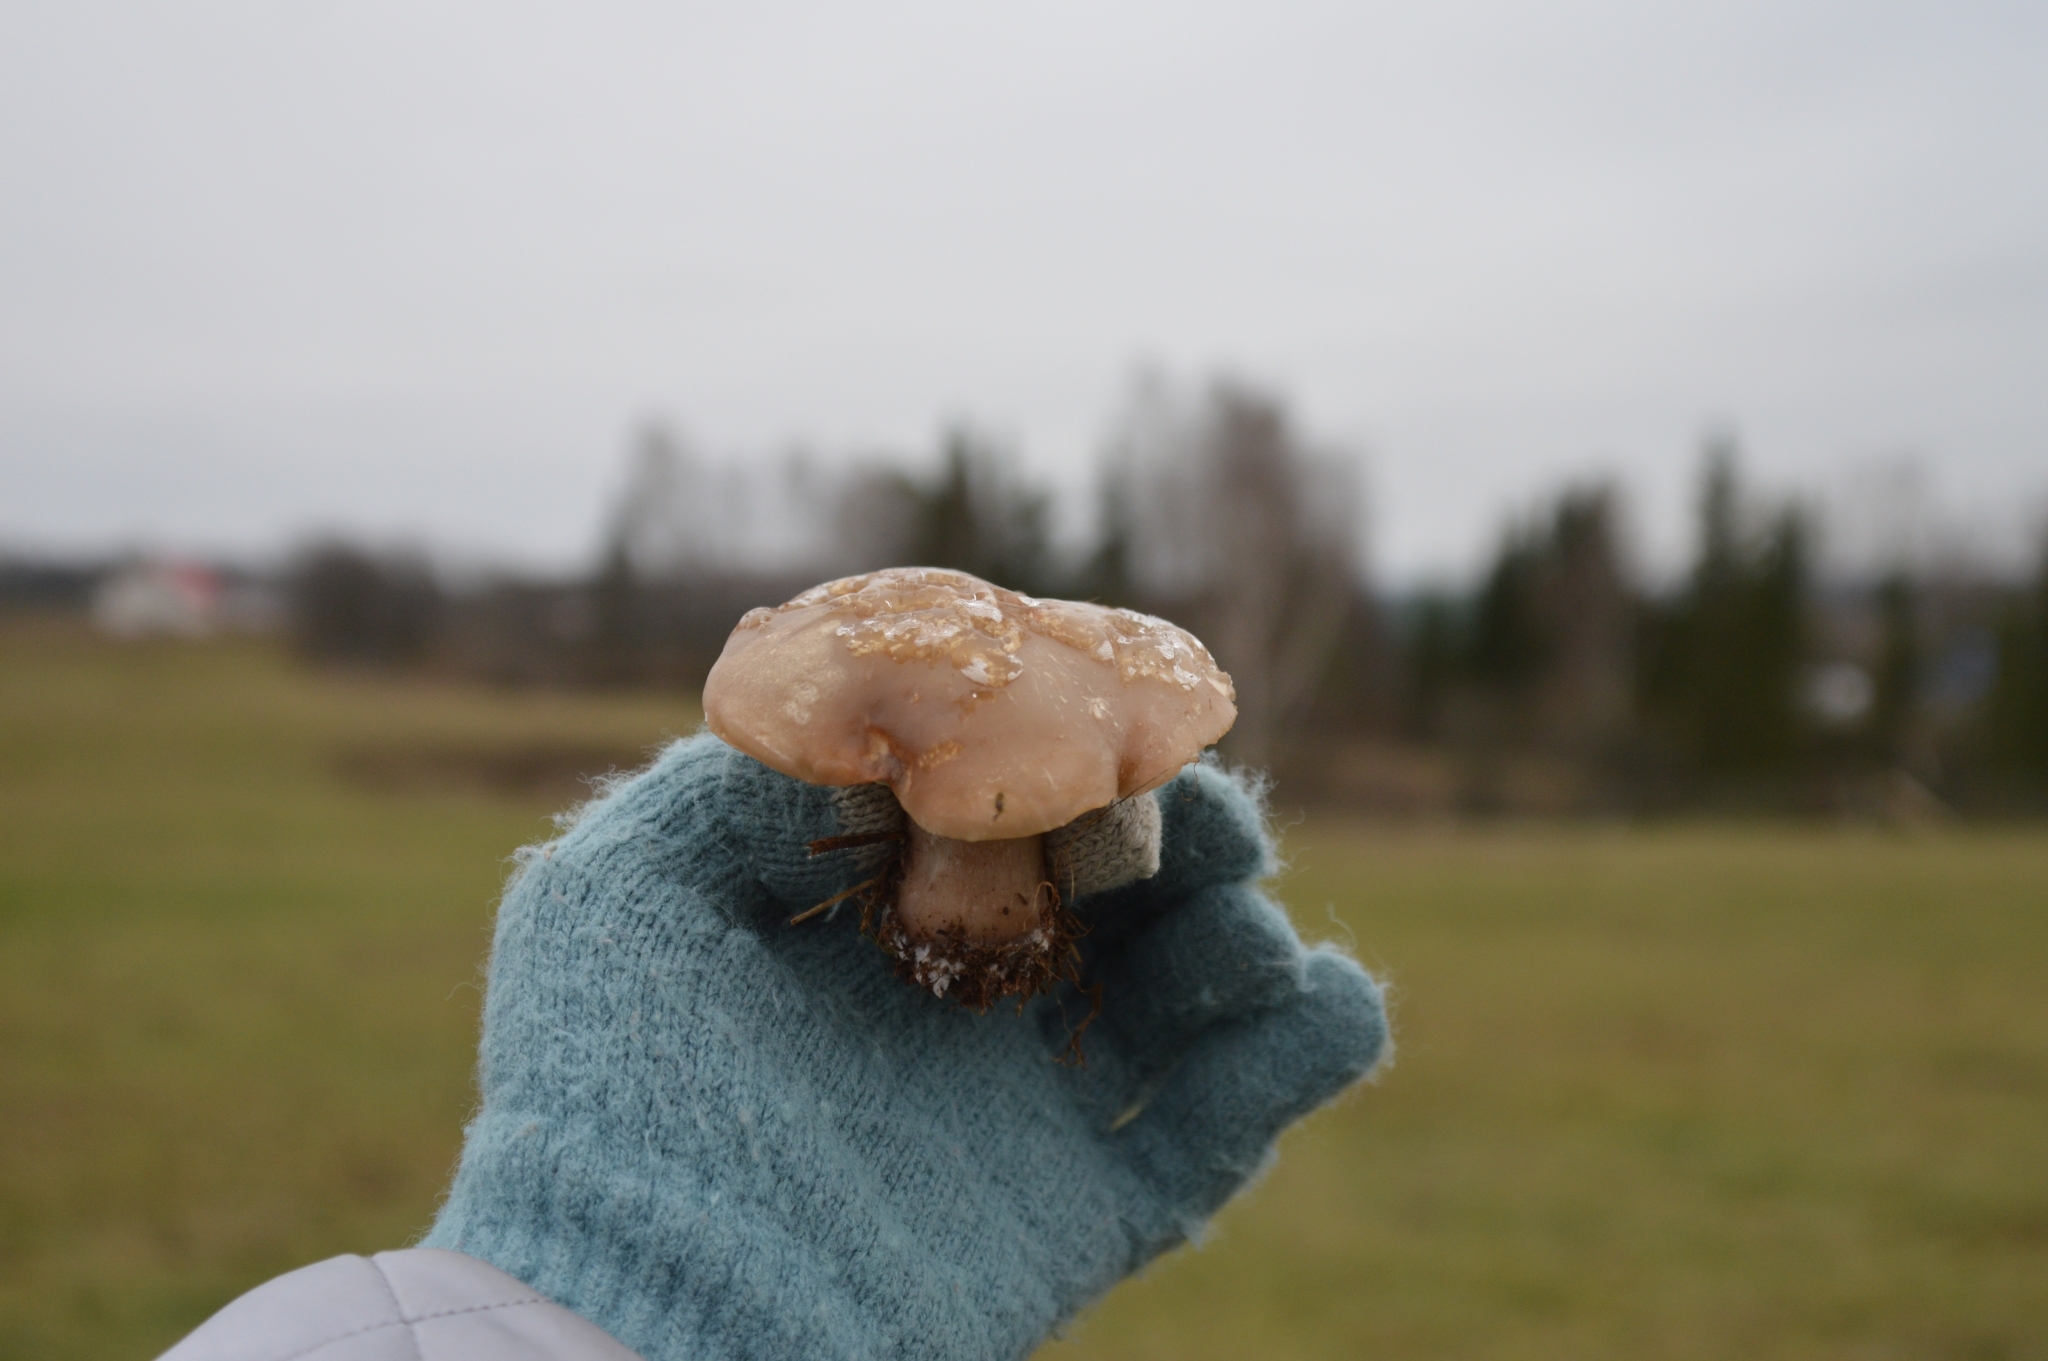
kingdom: Fungi
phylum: Basidiomycota
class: Agaricomycetes
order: Agaricales
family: Omphalotaceae
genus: Collybiopsis
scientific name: Collybiopsis peronata
